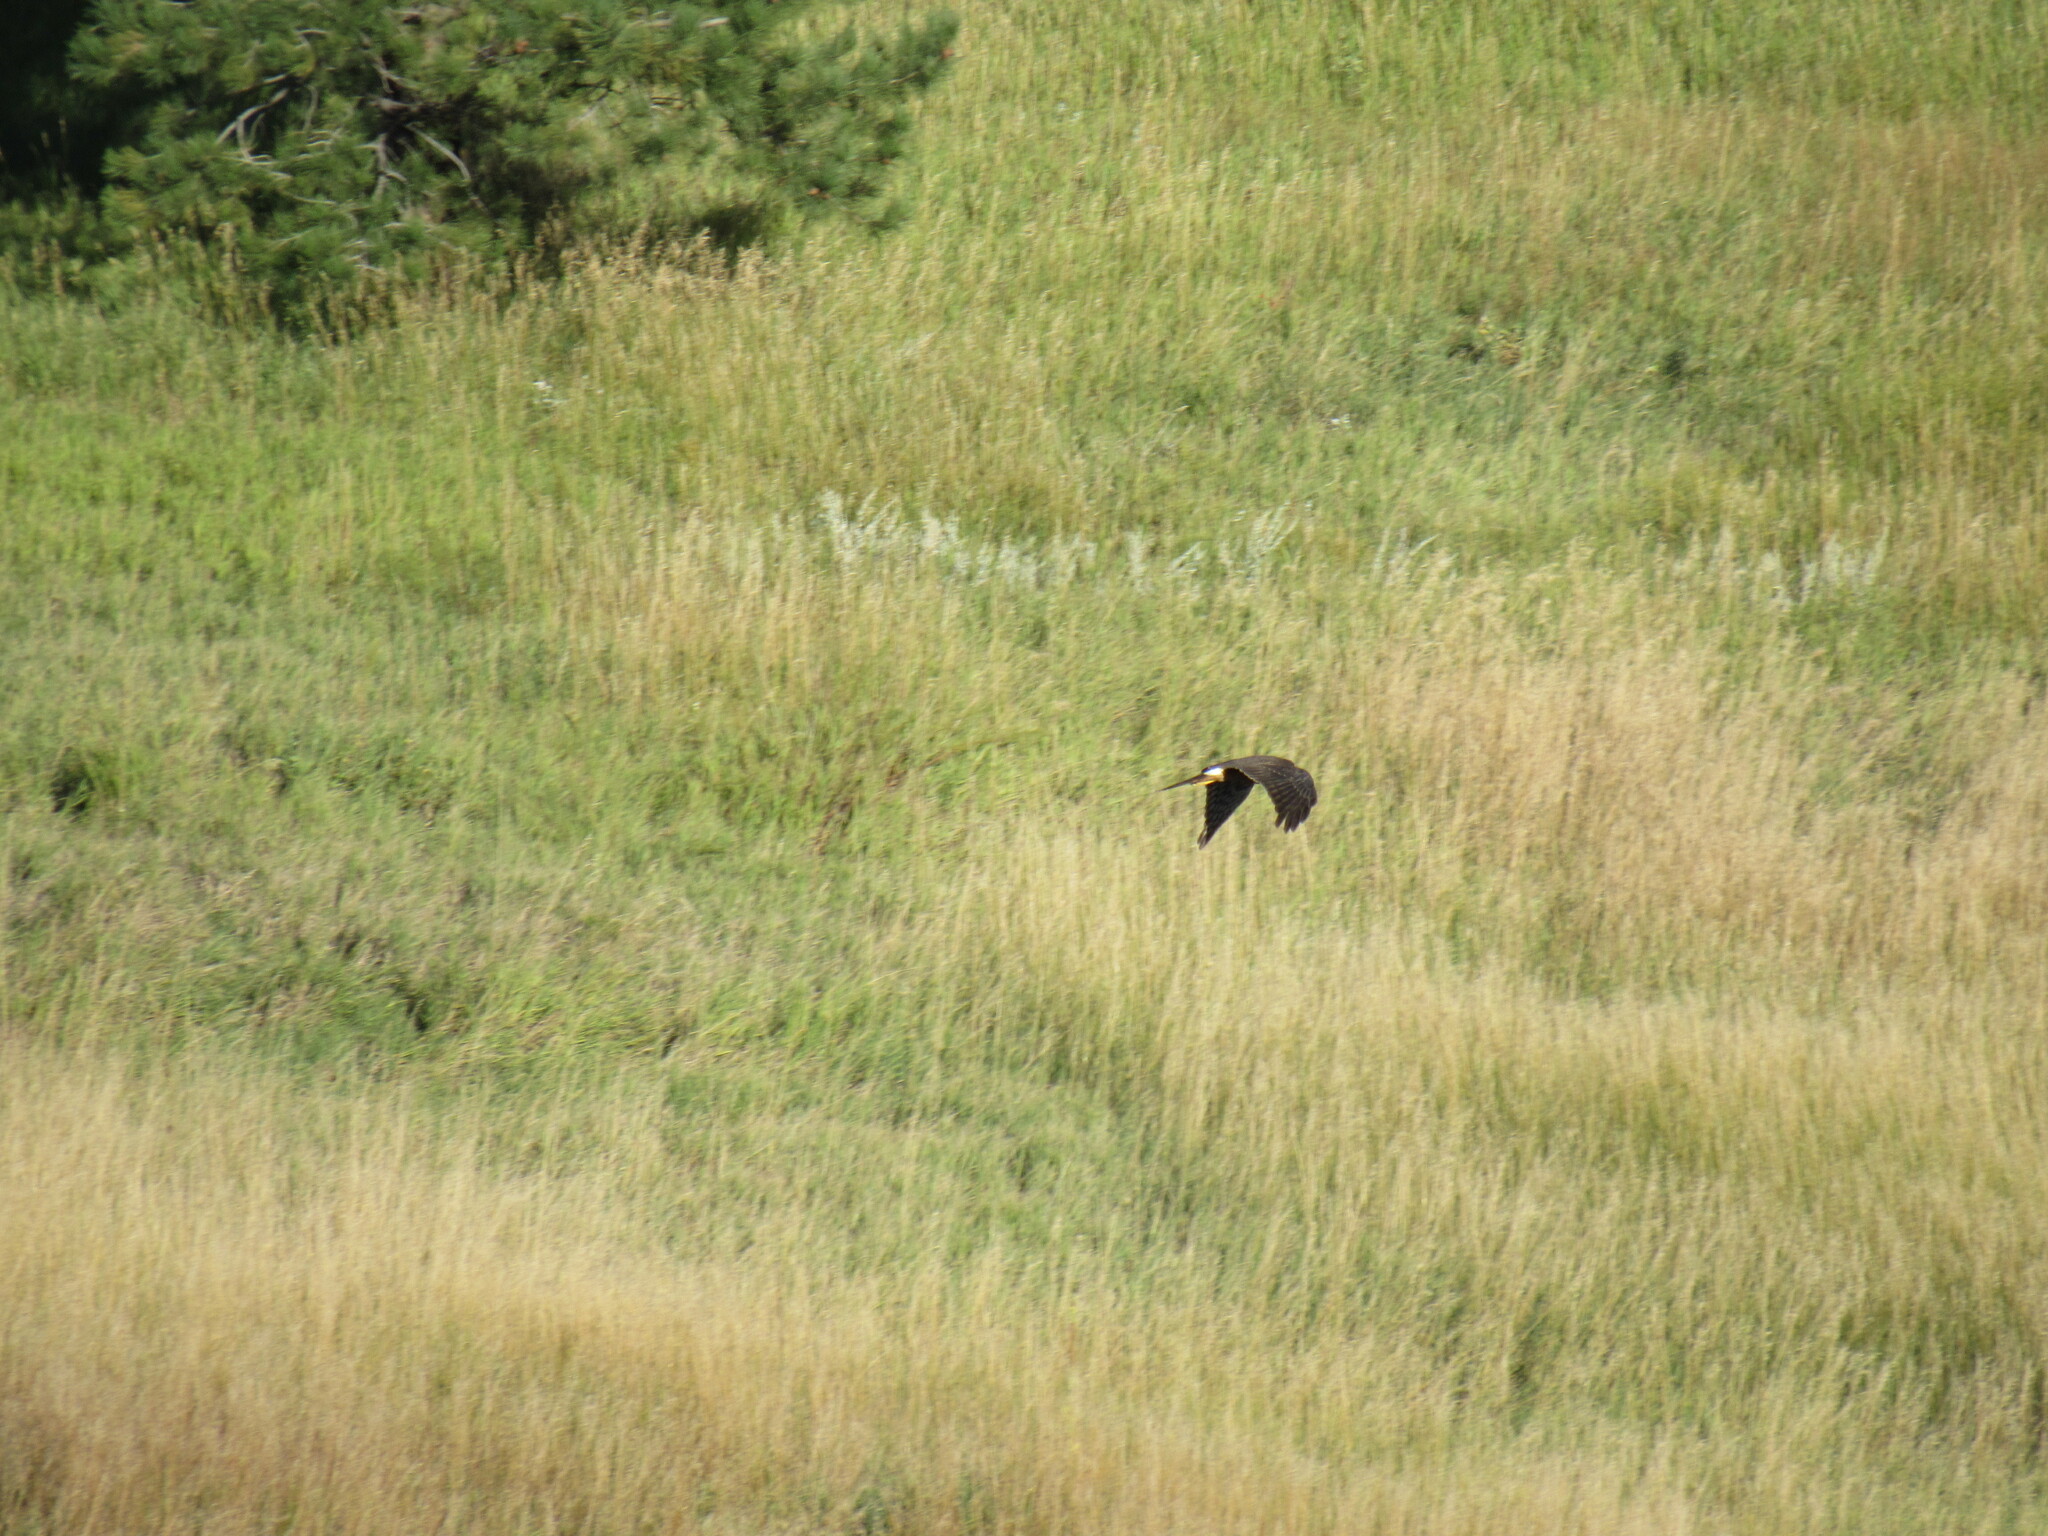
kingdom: Animalia
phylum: Chordata
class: Aves
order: Accipitriformes
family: Accipitridae
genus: Circus
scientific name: Circus cyaneus
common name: Hen harrier
